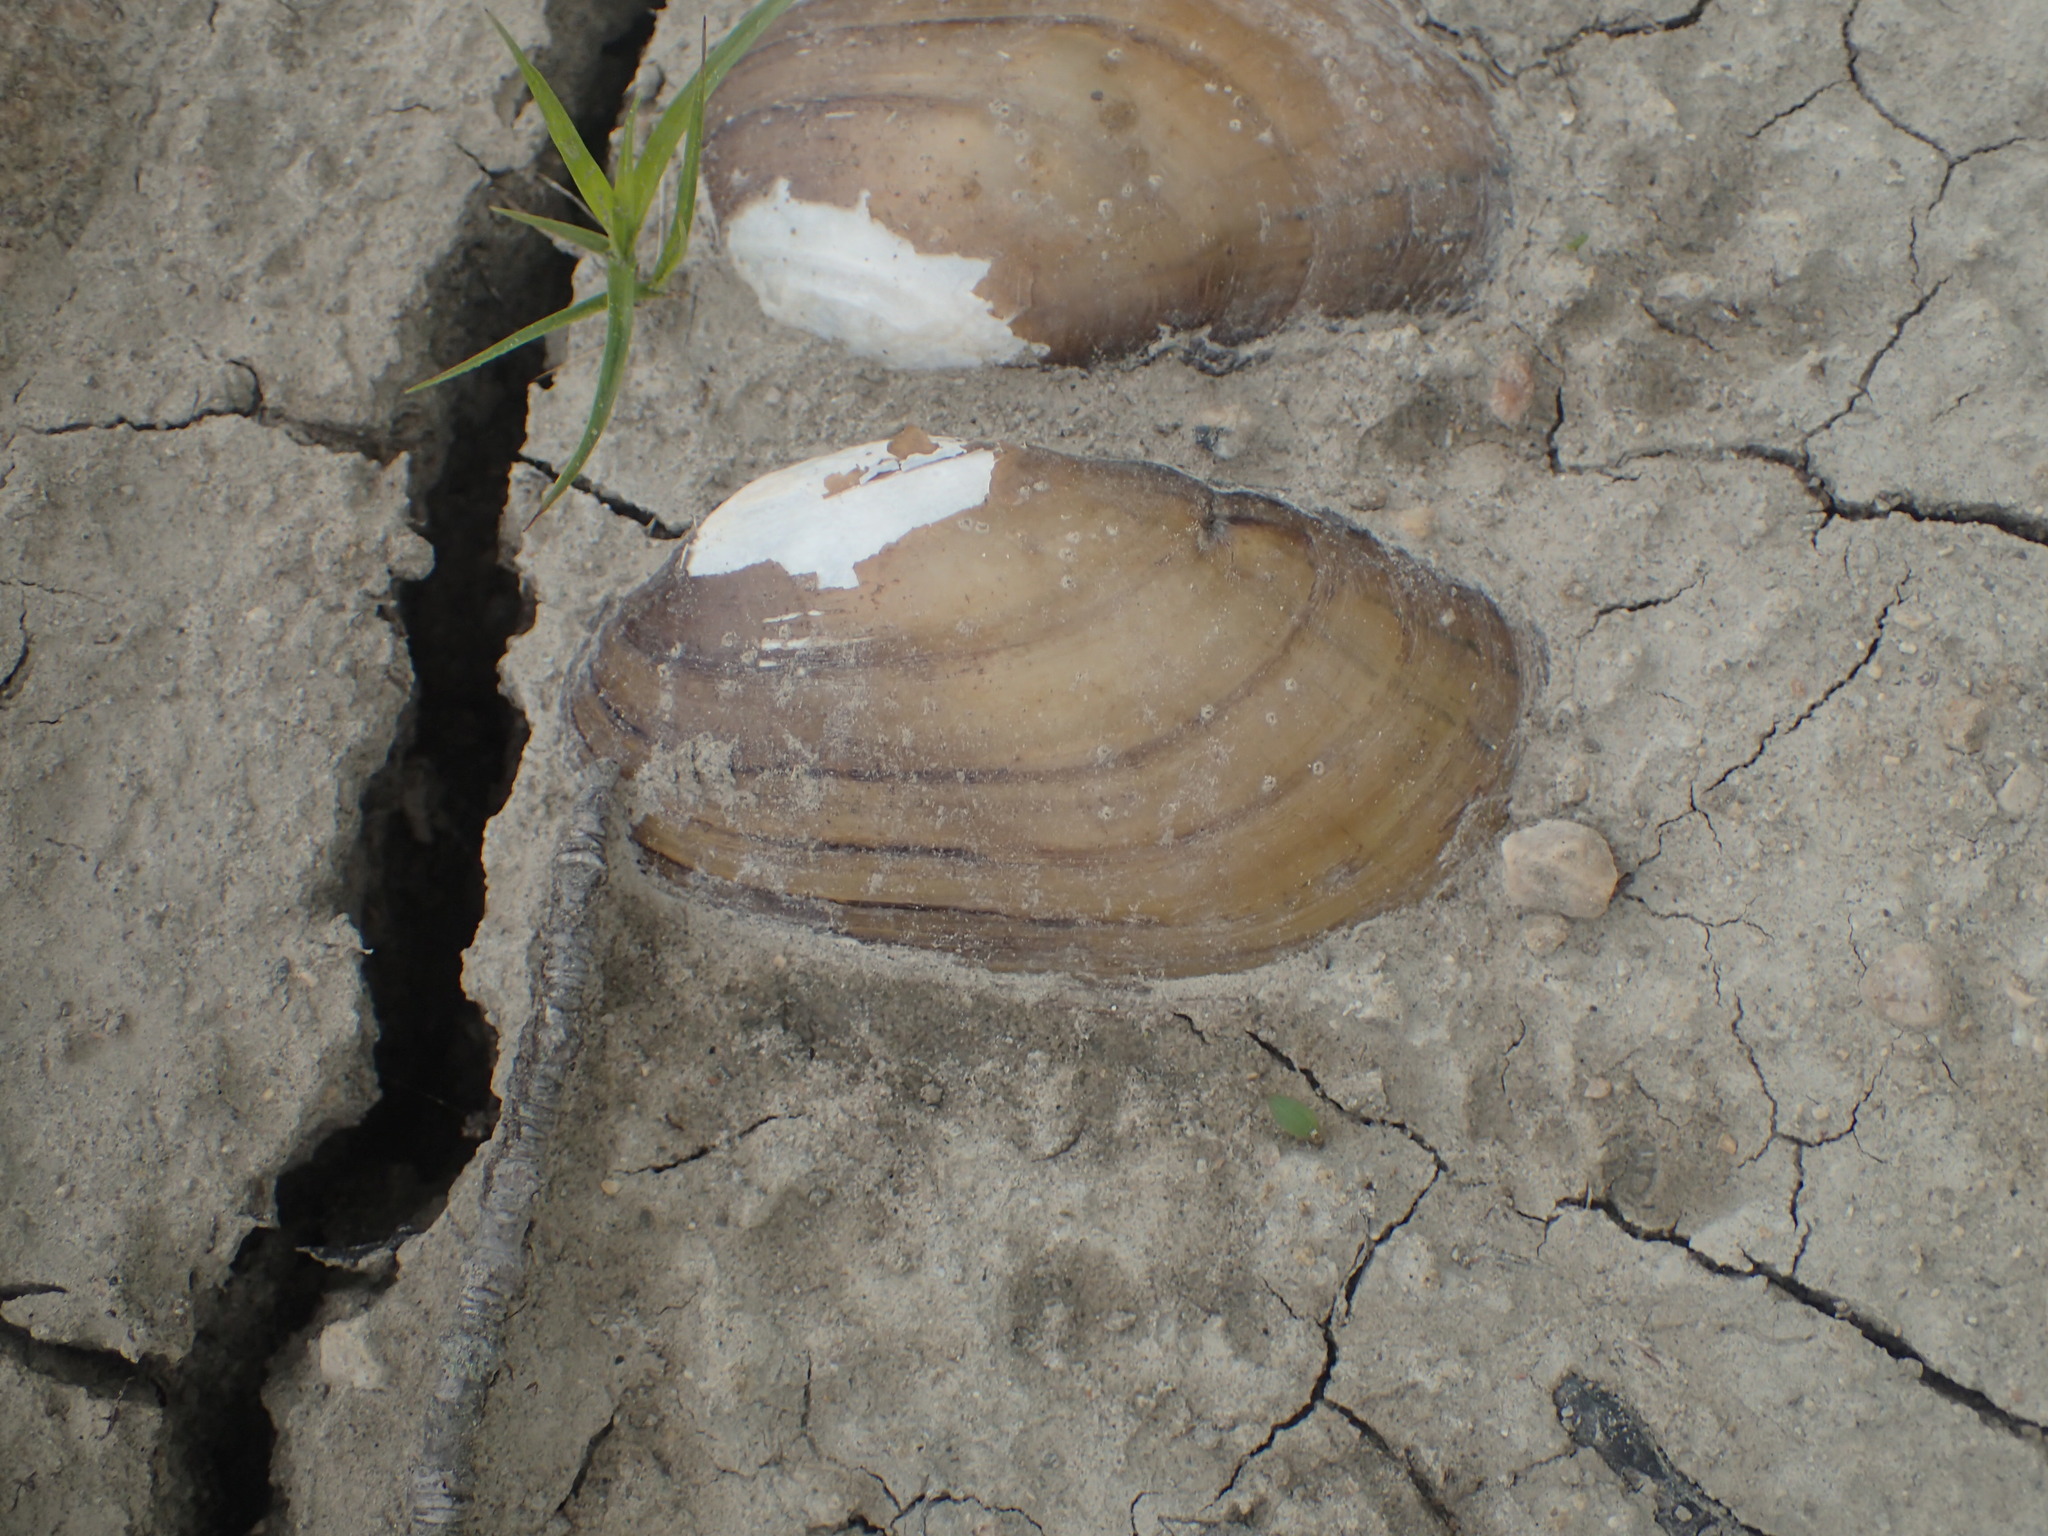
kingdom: Animalia
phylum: Mollusca
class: Bivalvia
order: Unionida
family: Unionidae
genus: Lampsilis
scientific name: Lampsilis siliquoidea
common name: Fatmucket
